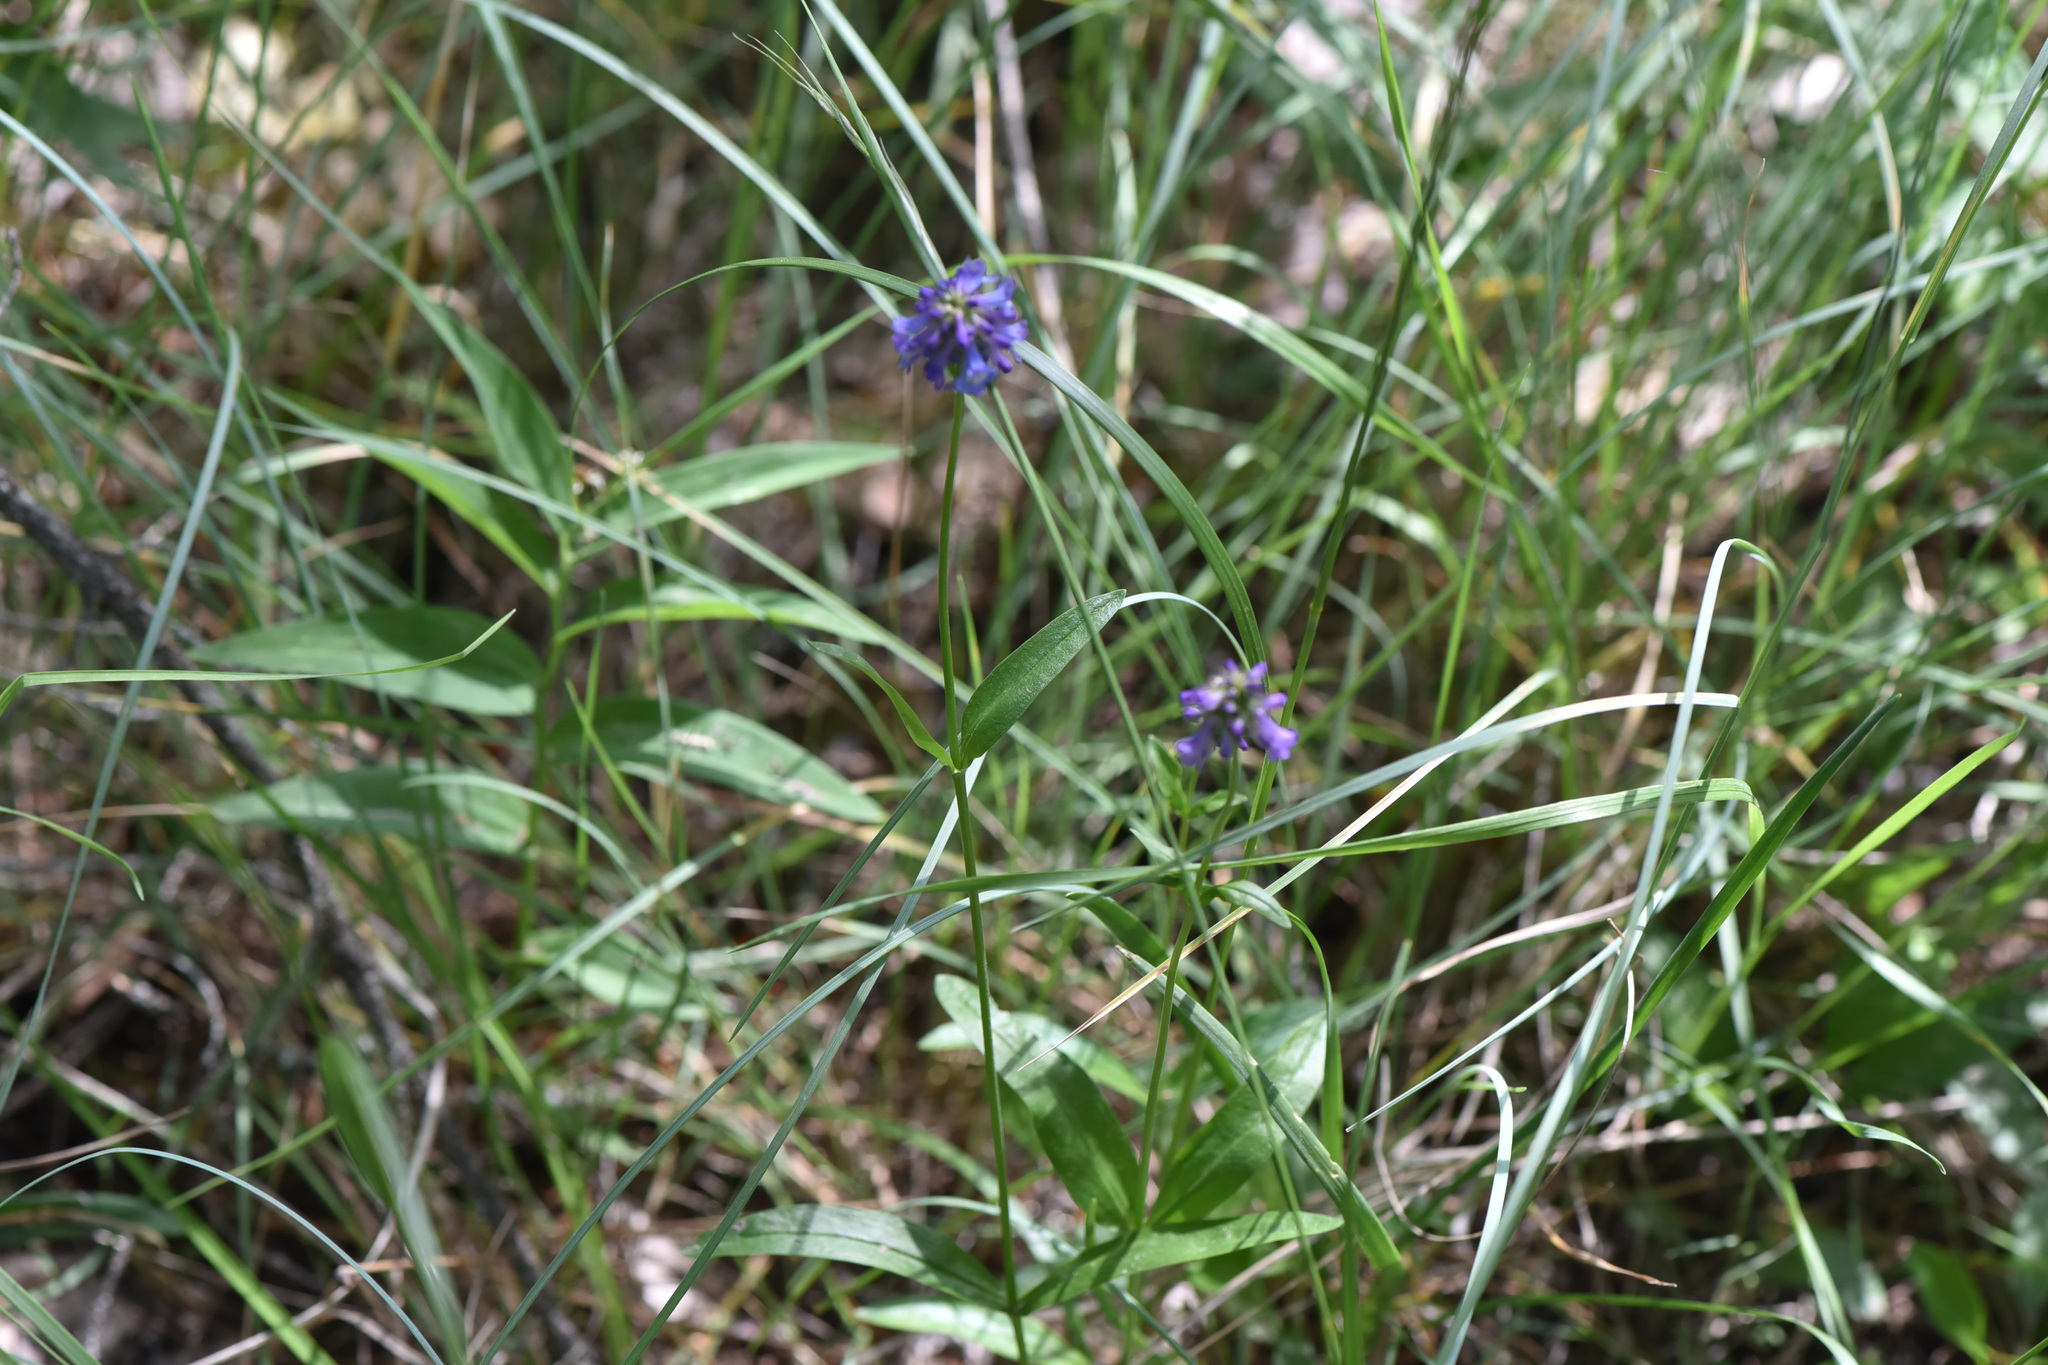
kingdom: Plantae
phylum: Tracheophyta
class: Magnoliopsida
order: Lamiales
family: Plantaginaceae
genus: Penstemon
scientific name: Penstemon procerus
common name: Small-flower penstemon
